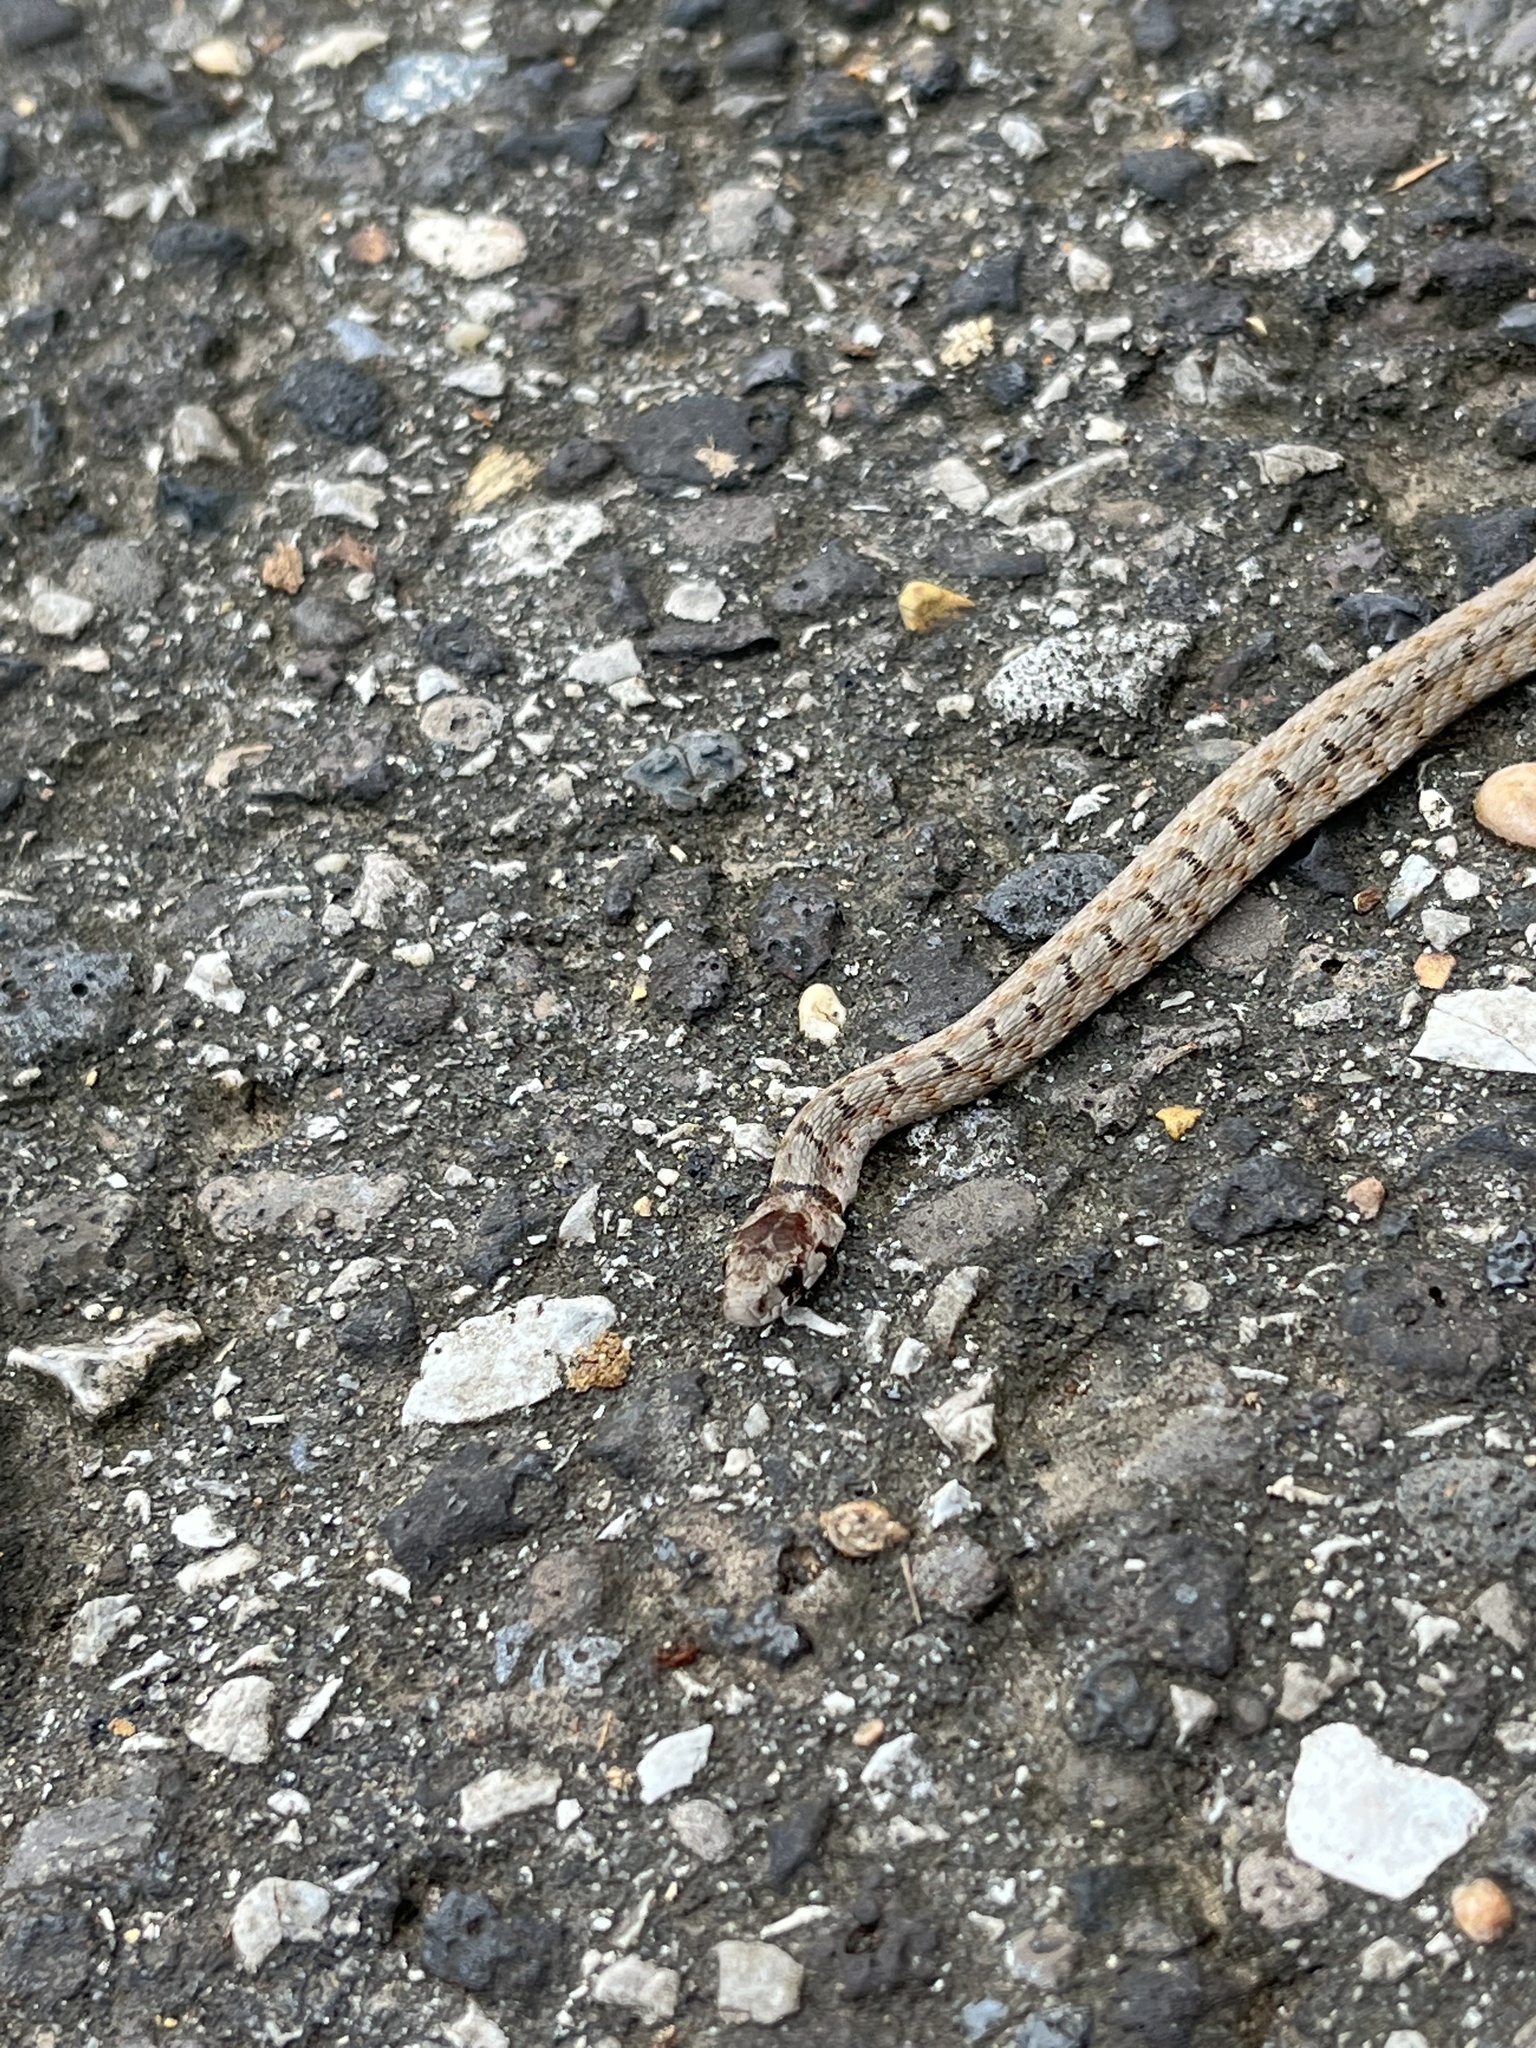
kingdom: Animalia
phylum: Chordata
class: Squamata
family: Colubridae
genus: Storeria
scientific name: Storeria dekayi
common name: (dekay’s) brown snake
